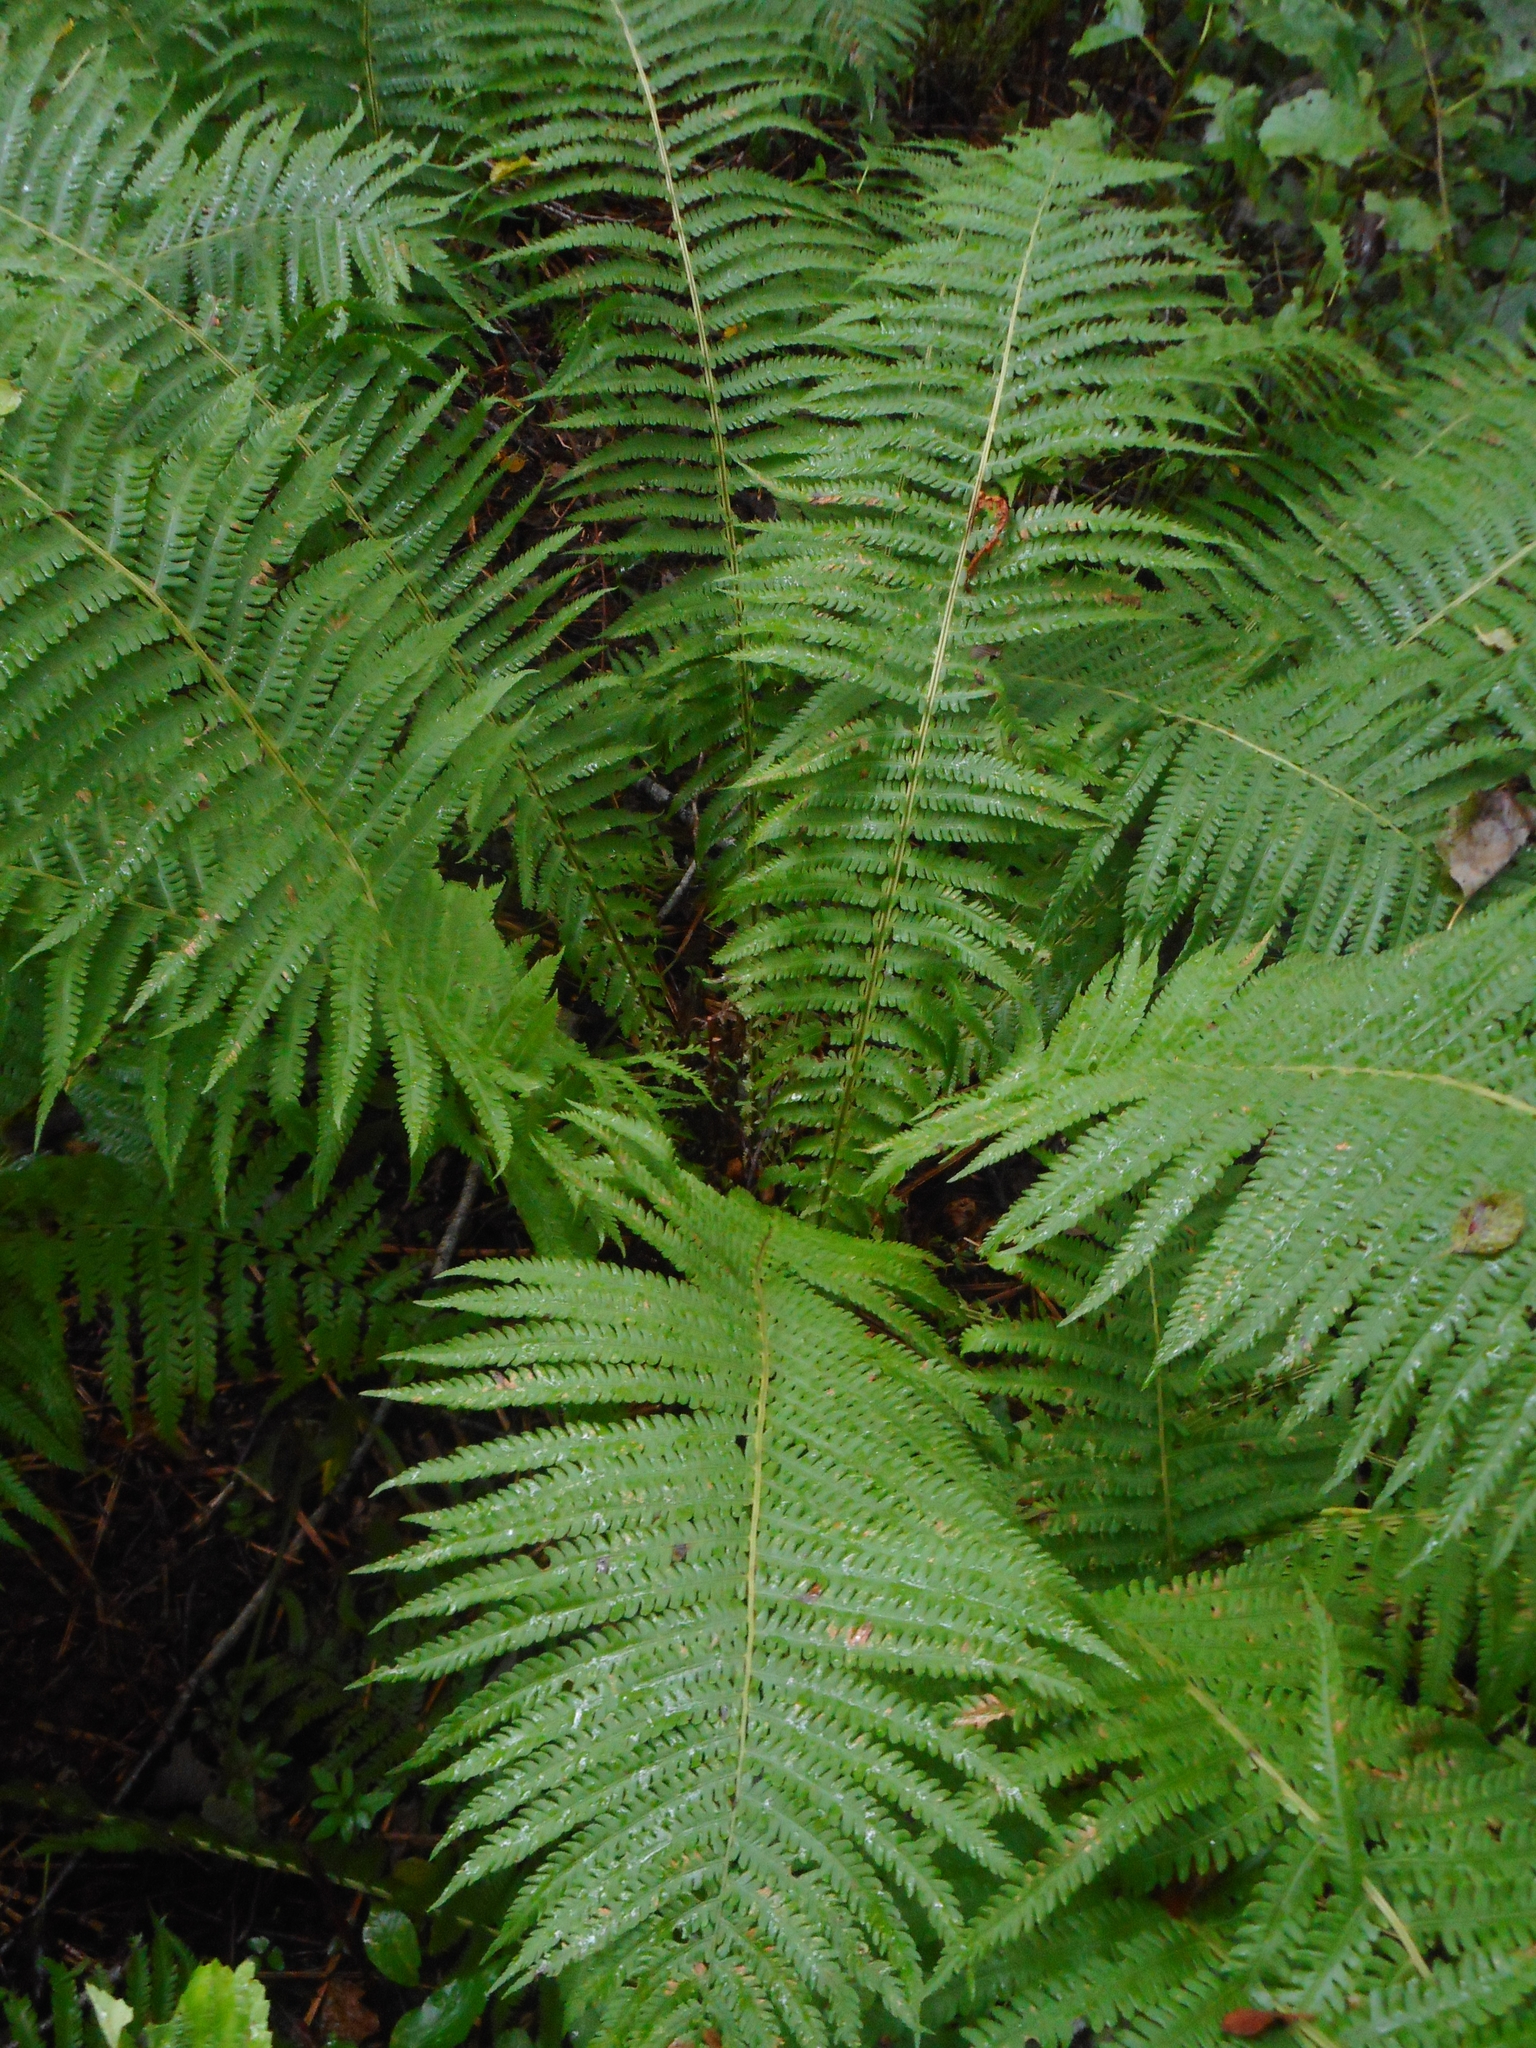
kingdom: Plantae
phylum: Tracheophyta
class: Polypodiopsida
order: Polypodiales
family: Onocleaceae
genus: Matteuccia
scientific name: Matteuccia struthiopteris
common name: Ostrich fern
